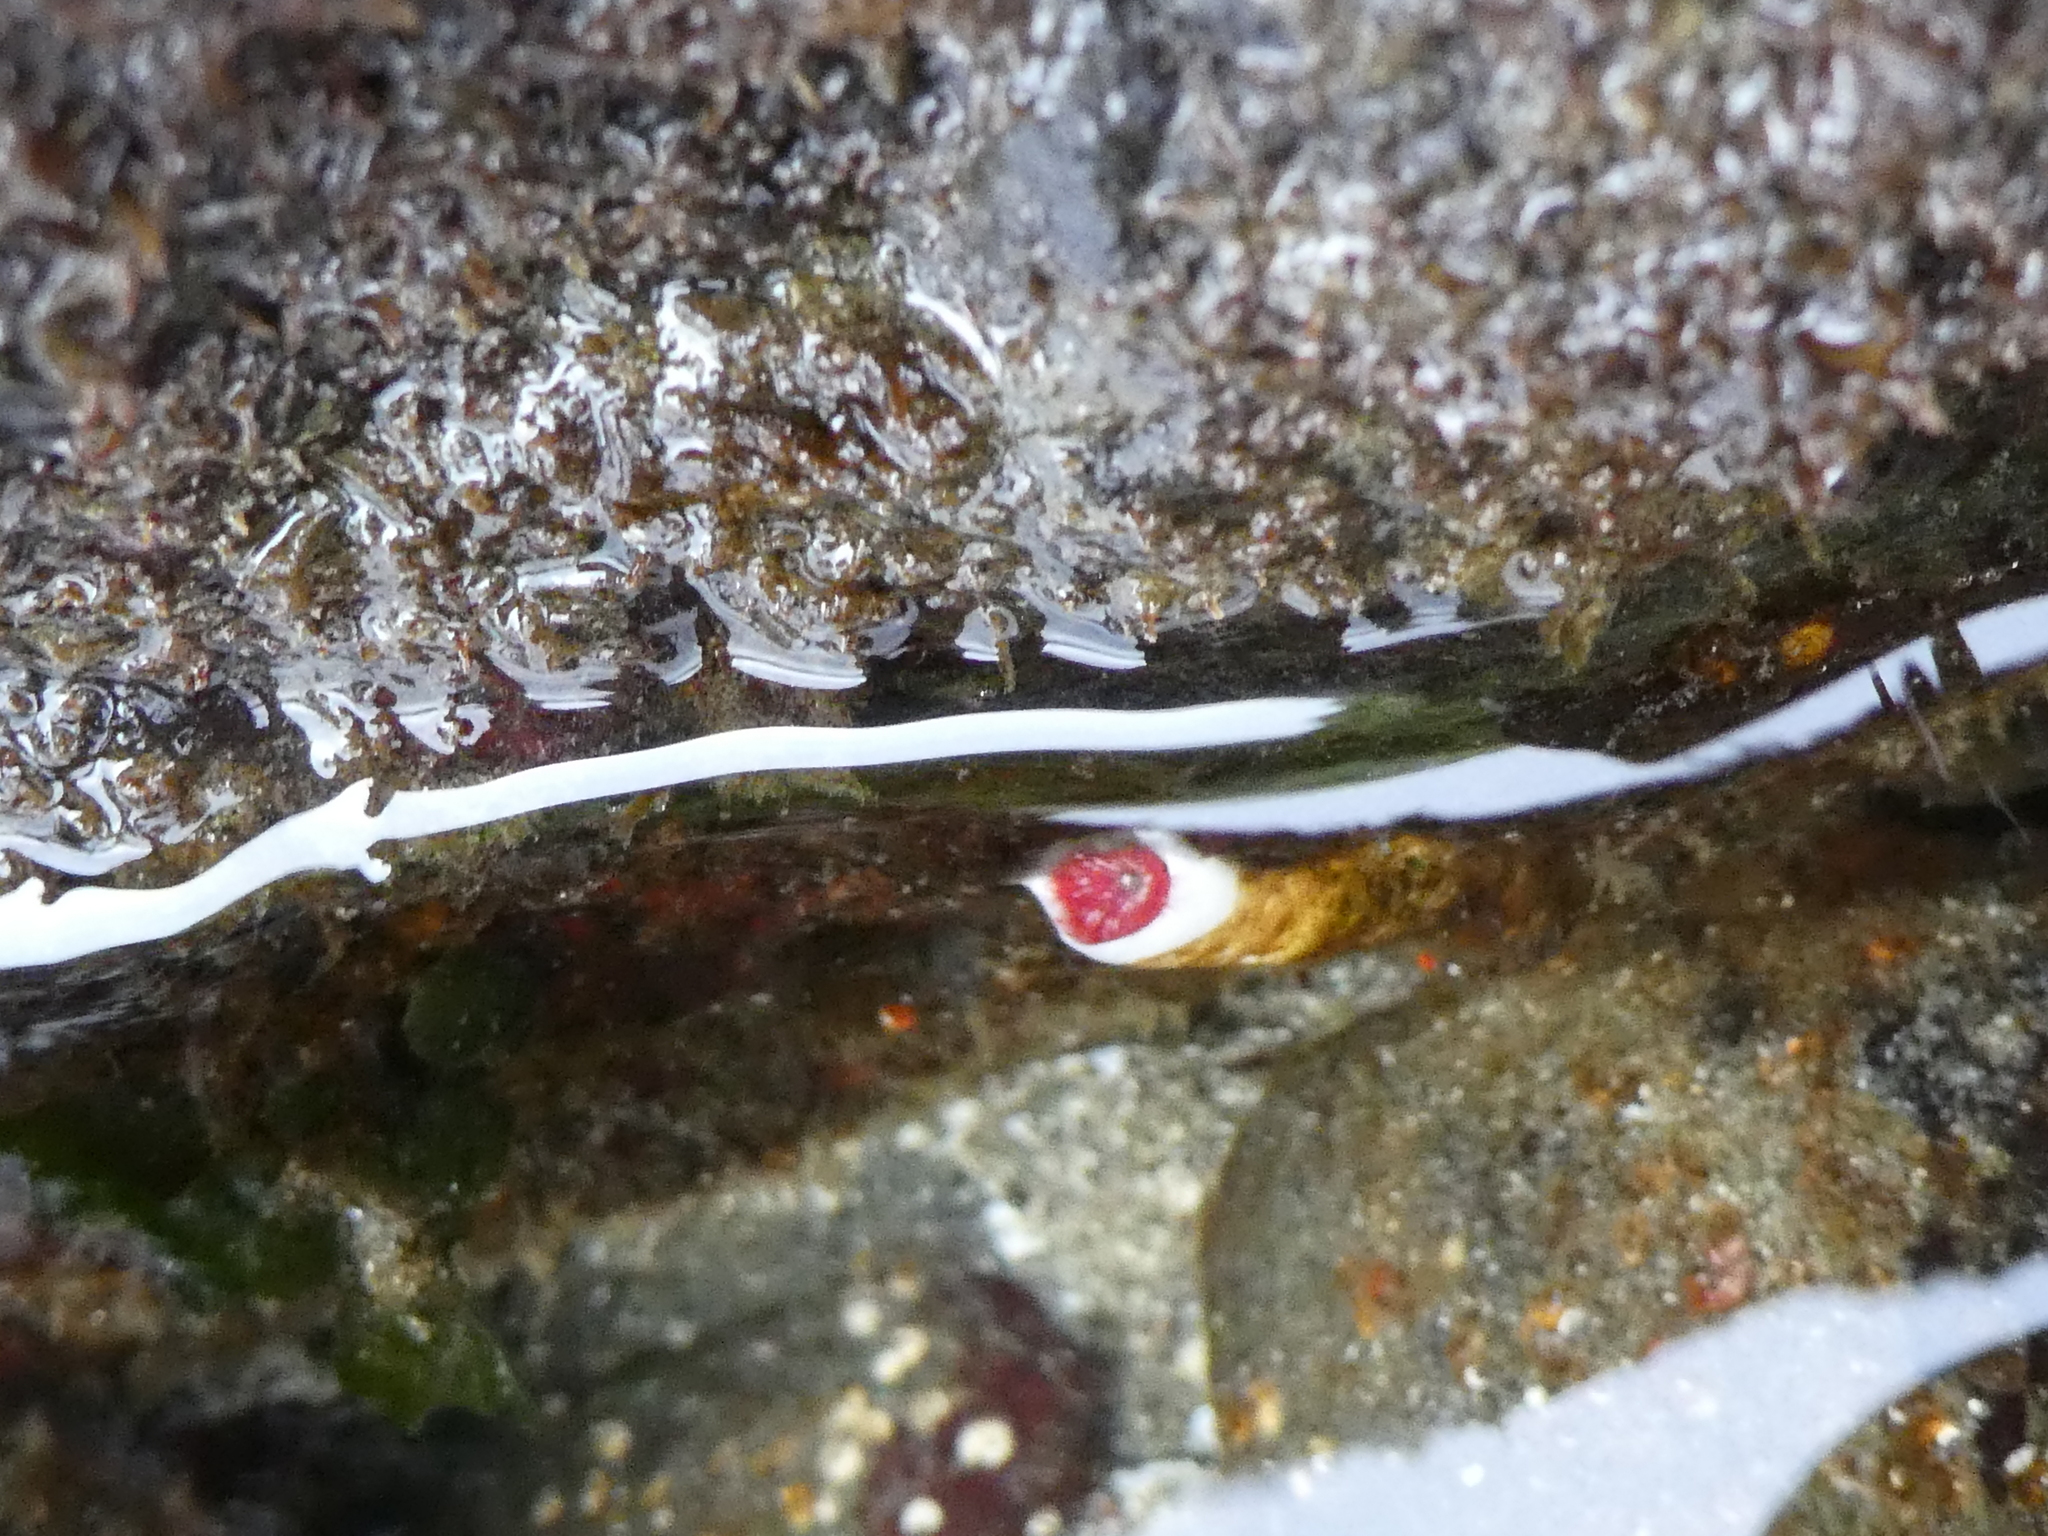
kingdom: Animalia
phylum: Annelida
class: Polychaeta
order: Sabellida
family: Serpulidae
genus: Serpula
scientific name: Serpula columbiana
